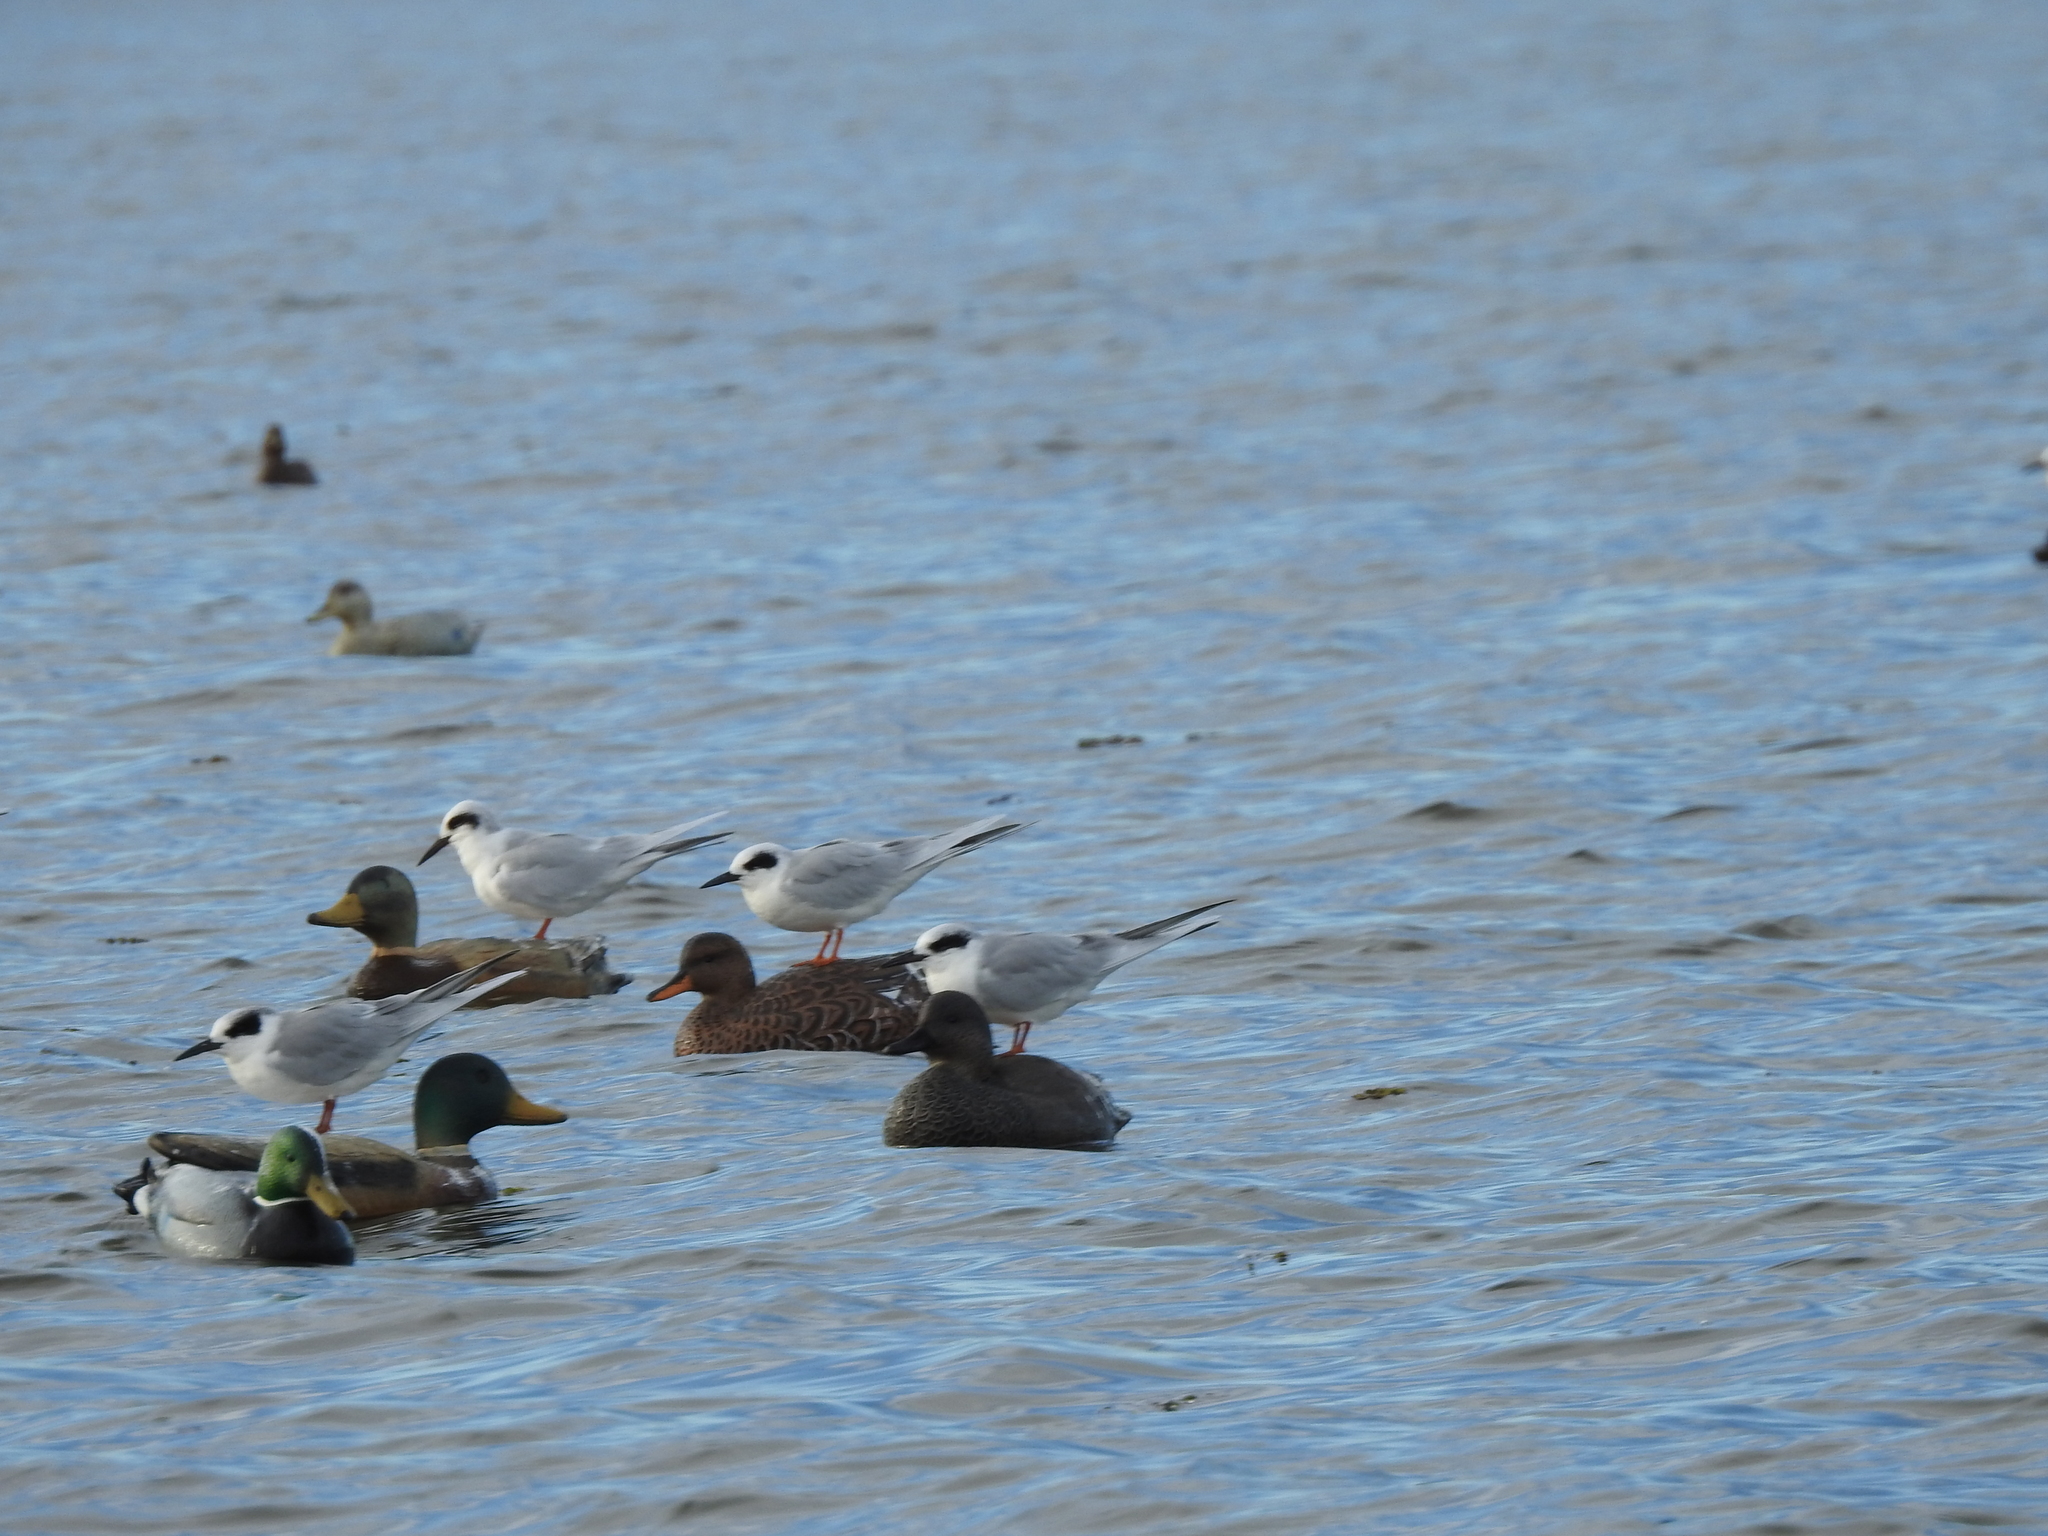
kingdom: Animalia
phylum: Chordata
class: Aves
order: Charadriiformes
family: Laridae
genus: Sterna
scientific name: Sterna forsteri
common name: Forster's tern
